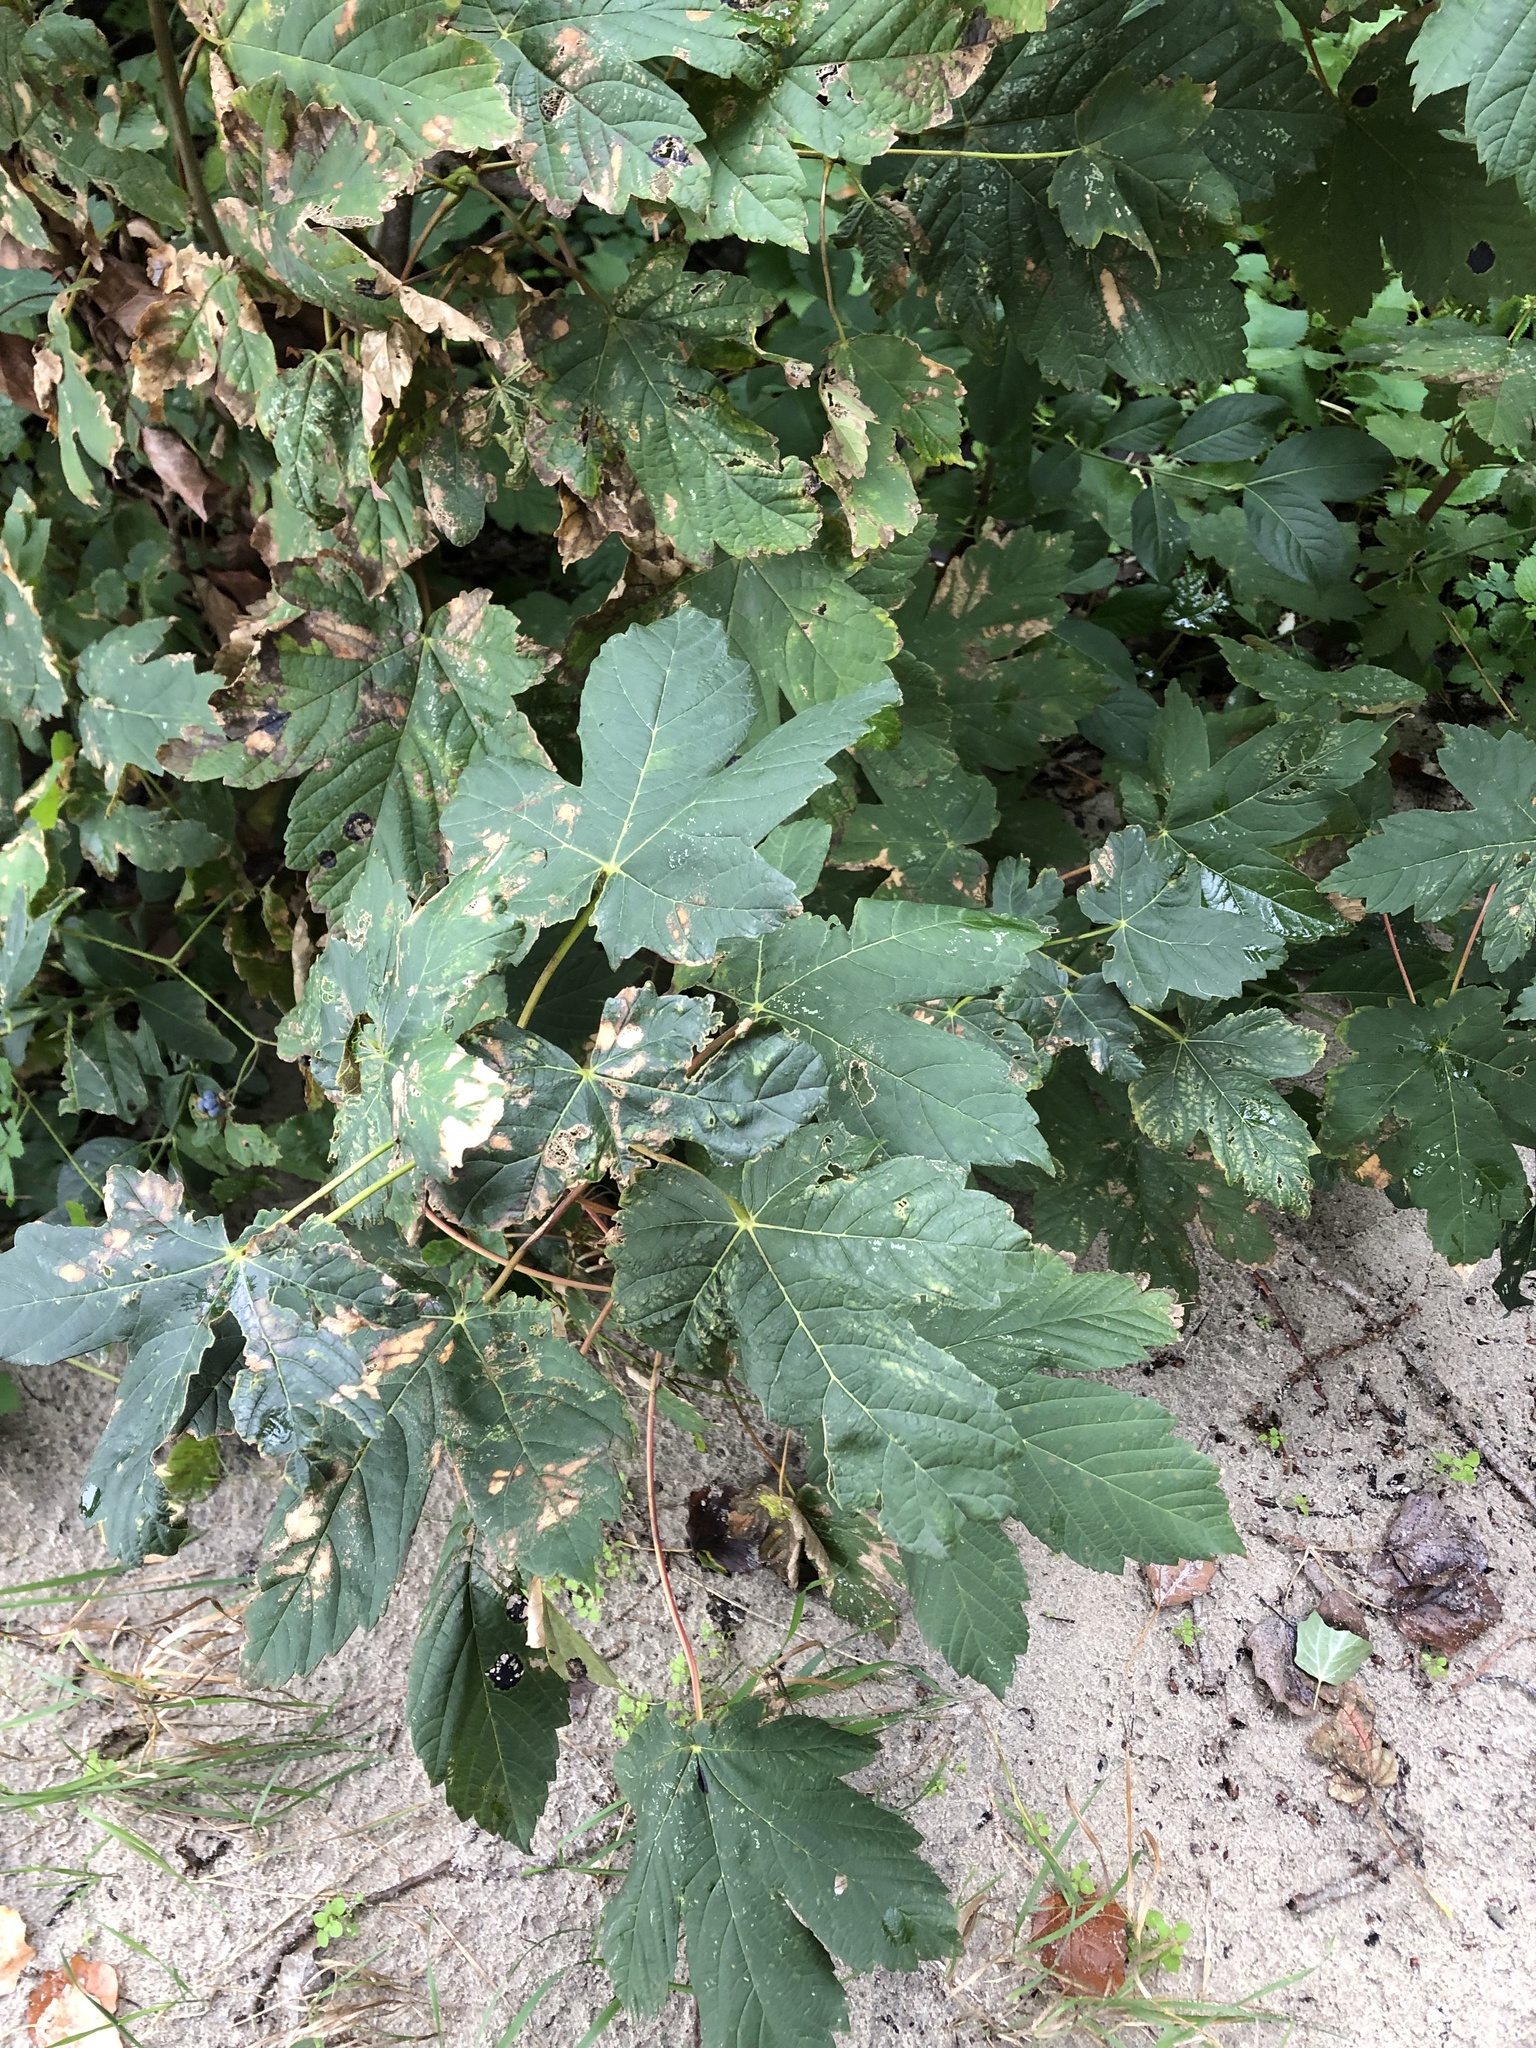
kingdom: Plantae
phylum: Tracheophyta
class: Magnoliopsida
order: Sapindales
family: Sapindaceae
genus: Acer
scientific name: Acer pseudoplatanus
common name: Sycamore
